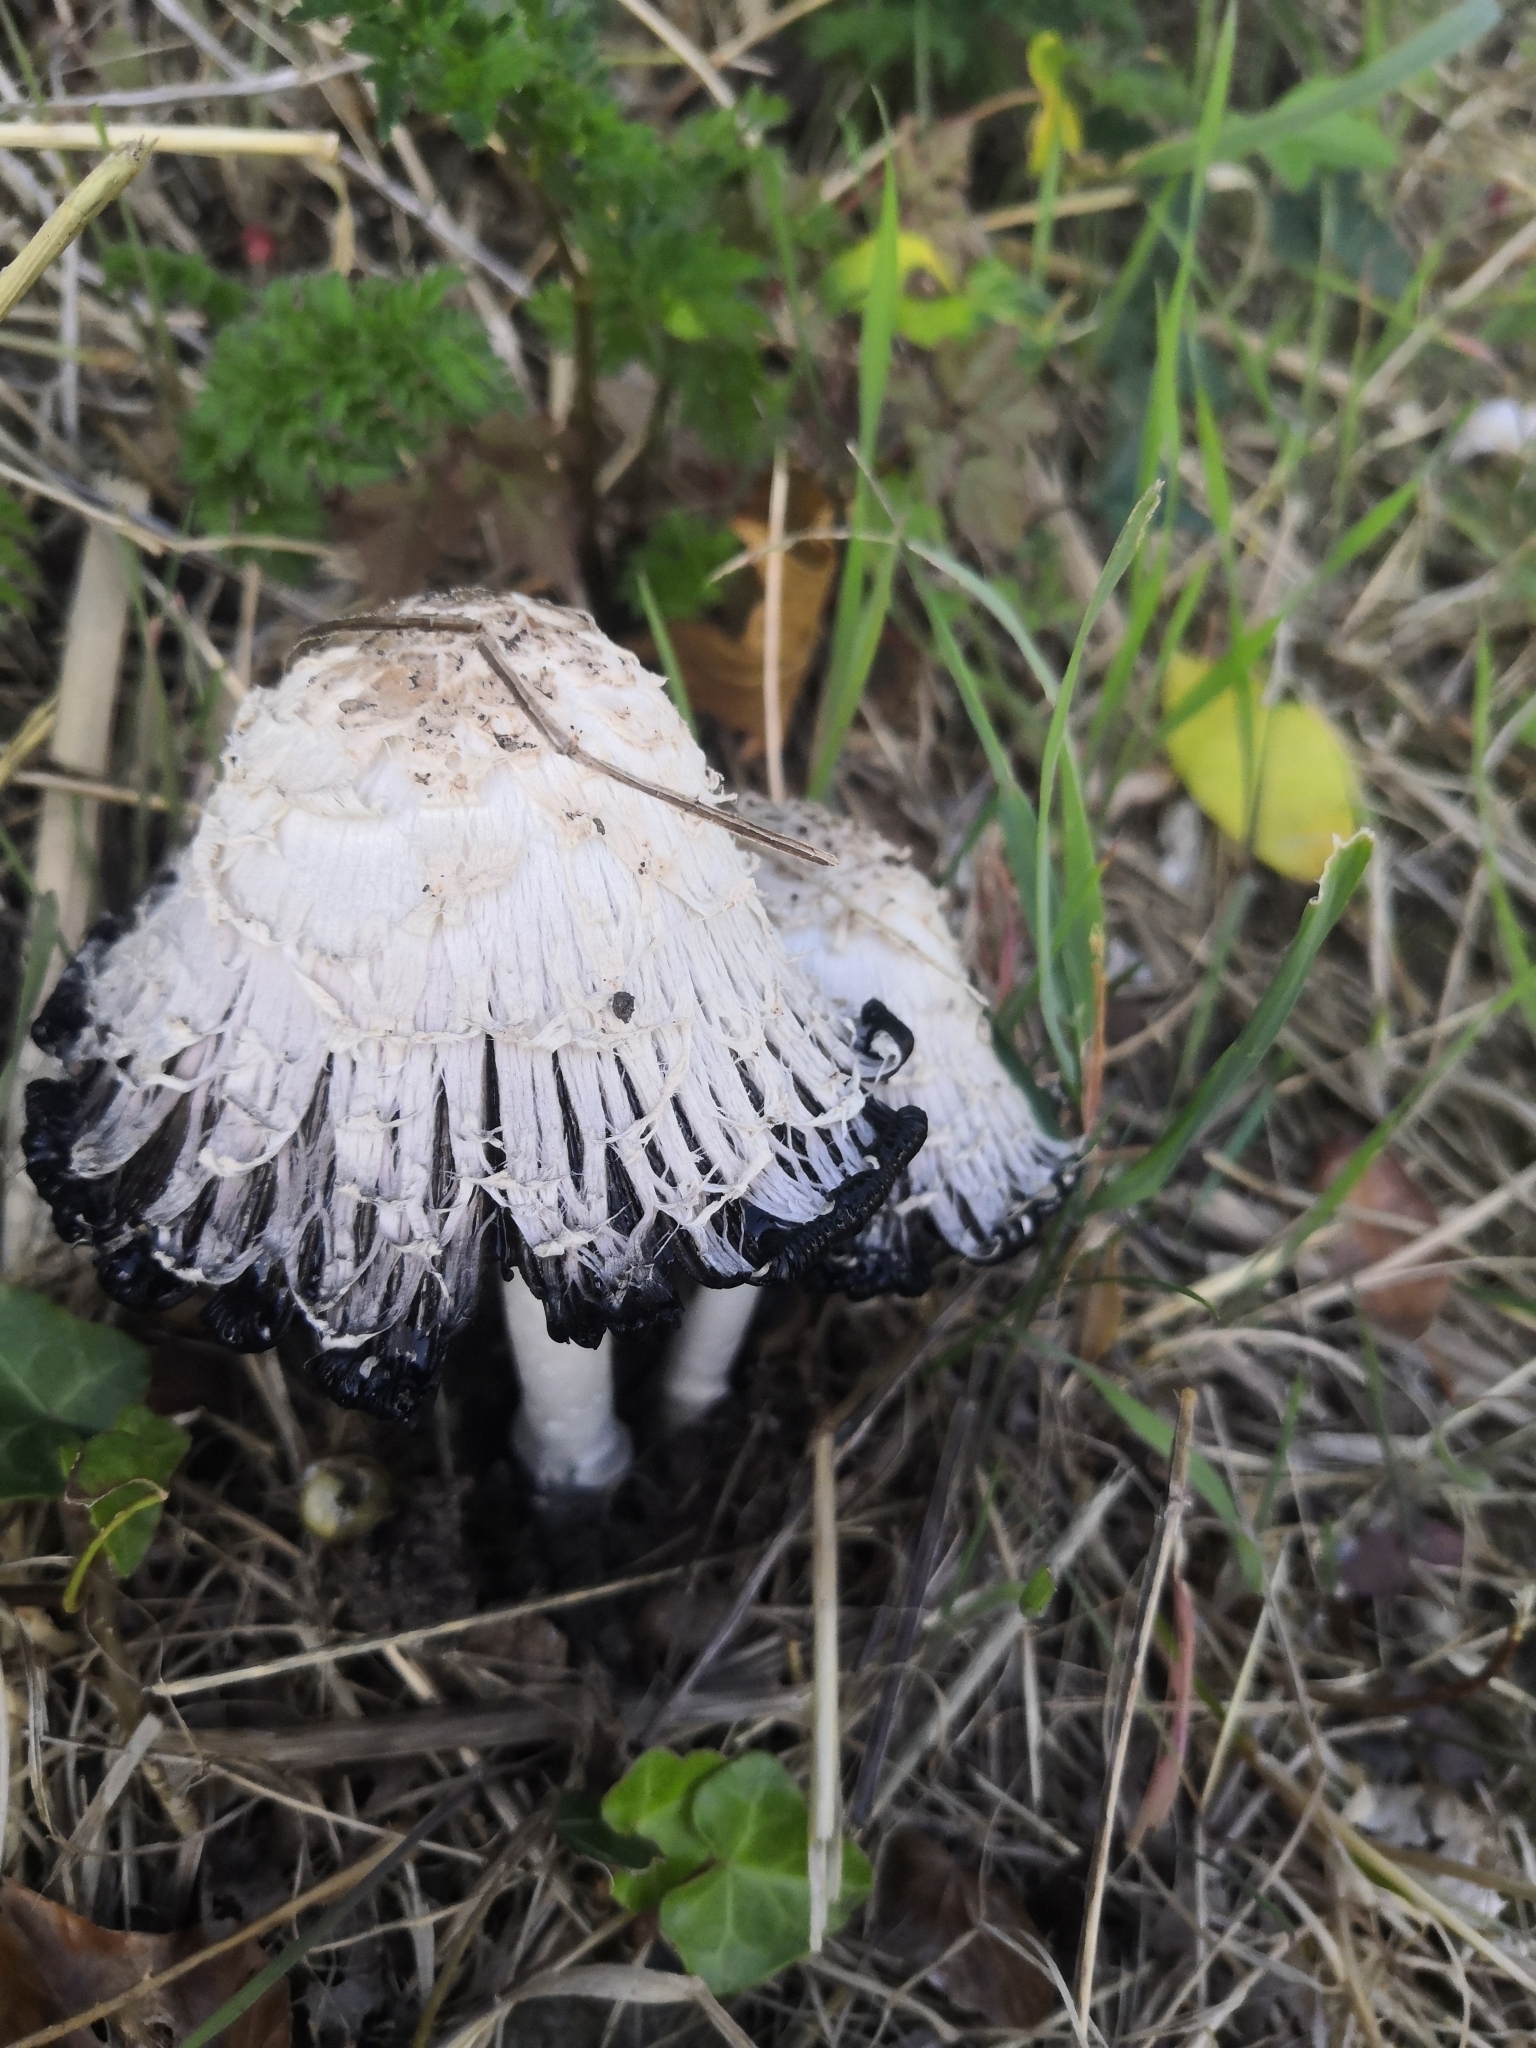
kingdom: Fungi
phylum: Basidiomycota
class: Agaricomycetes
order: Agaricales
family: Agaricaceae
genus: Coprinus
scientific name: Coprinus comatus
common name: Lawyer's wig
